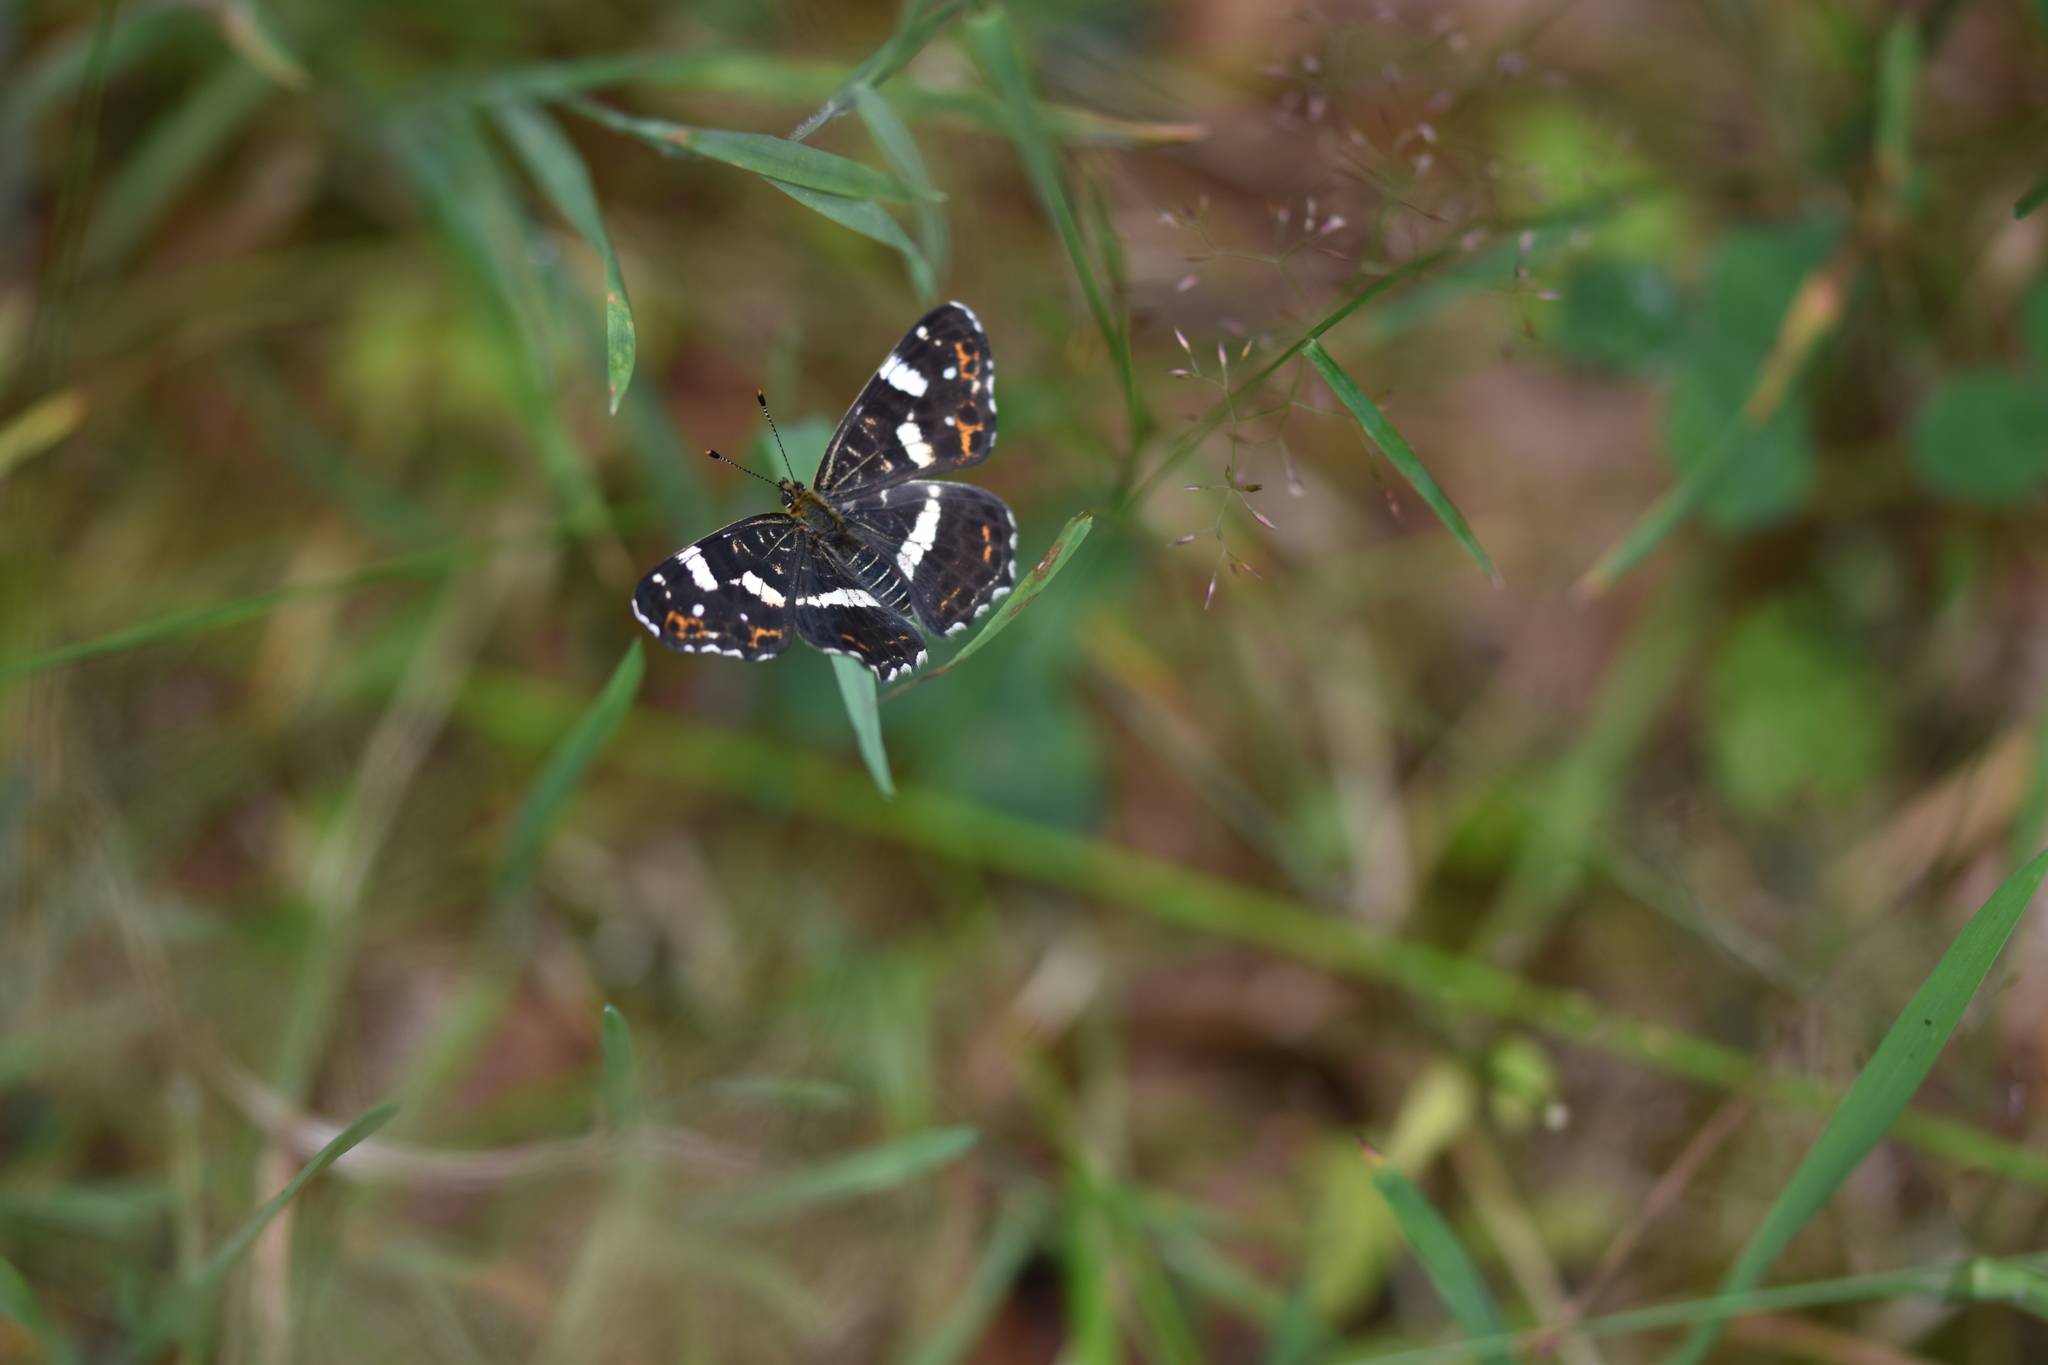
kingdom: Animalia
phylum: Arthropoda
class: Insecta
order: Lepidoptera
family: Nymphalidae
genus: Araschnia
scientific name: Araschnia levana
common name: Map butterfly
